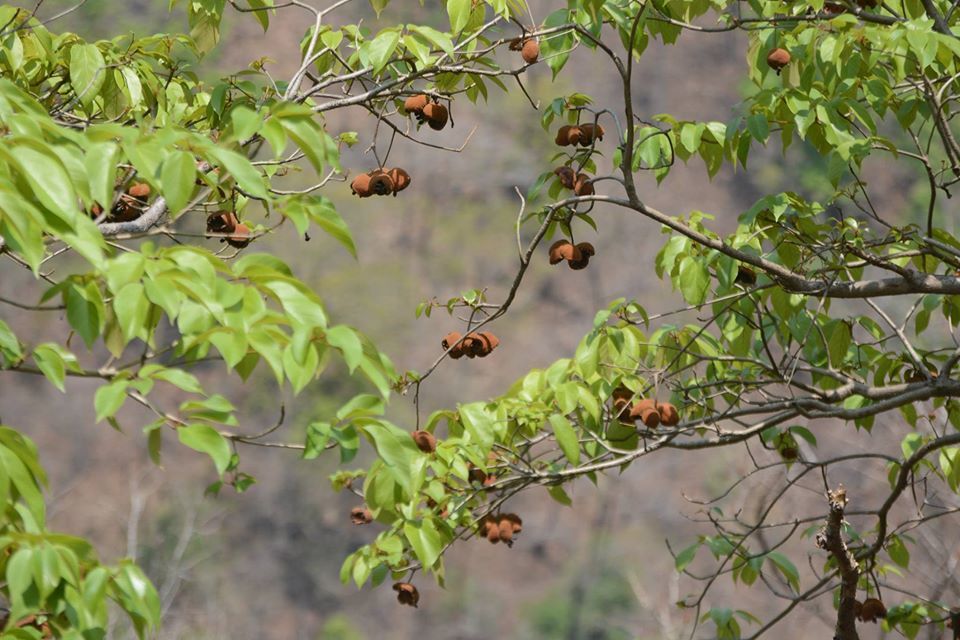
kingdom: Plantae
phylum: Tracheophyta
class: Magnoliopsida
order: Malvales
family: Malvaceae
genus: Sterculia
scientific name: Sterculia guttata
